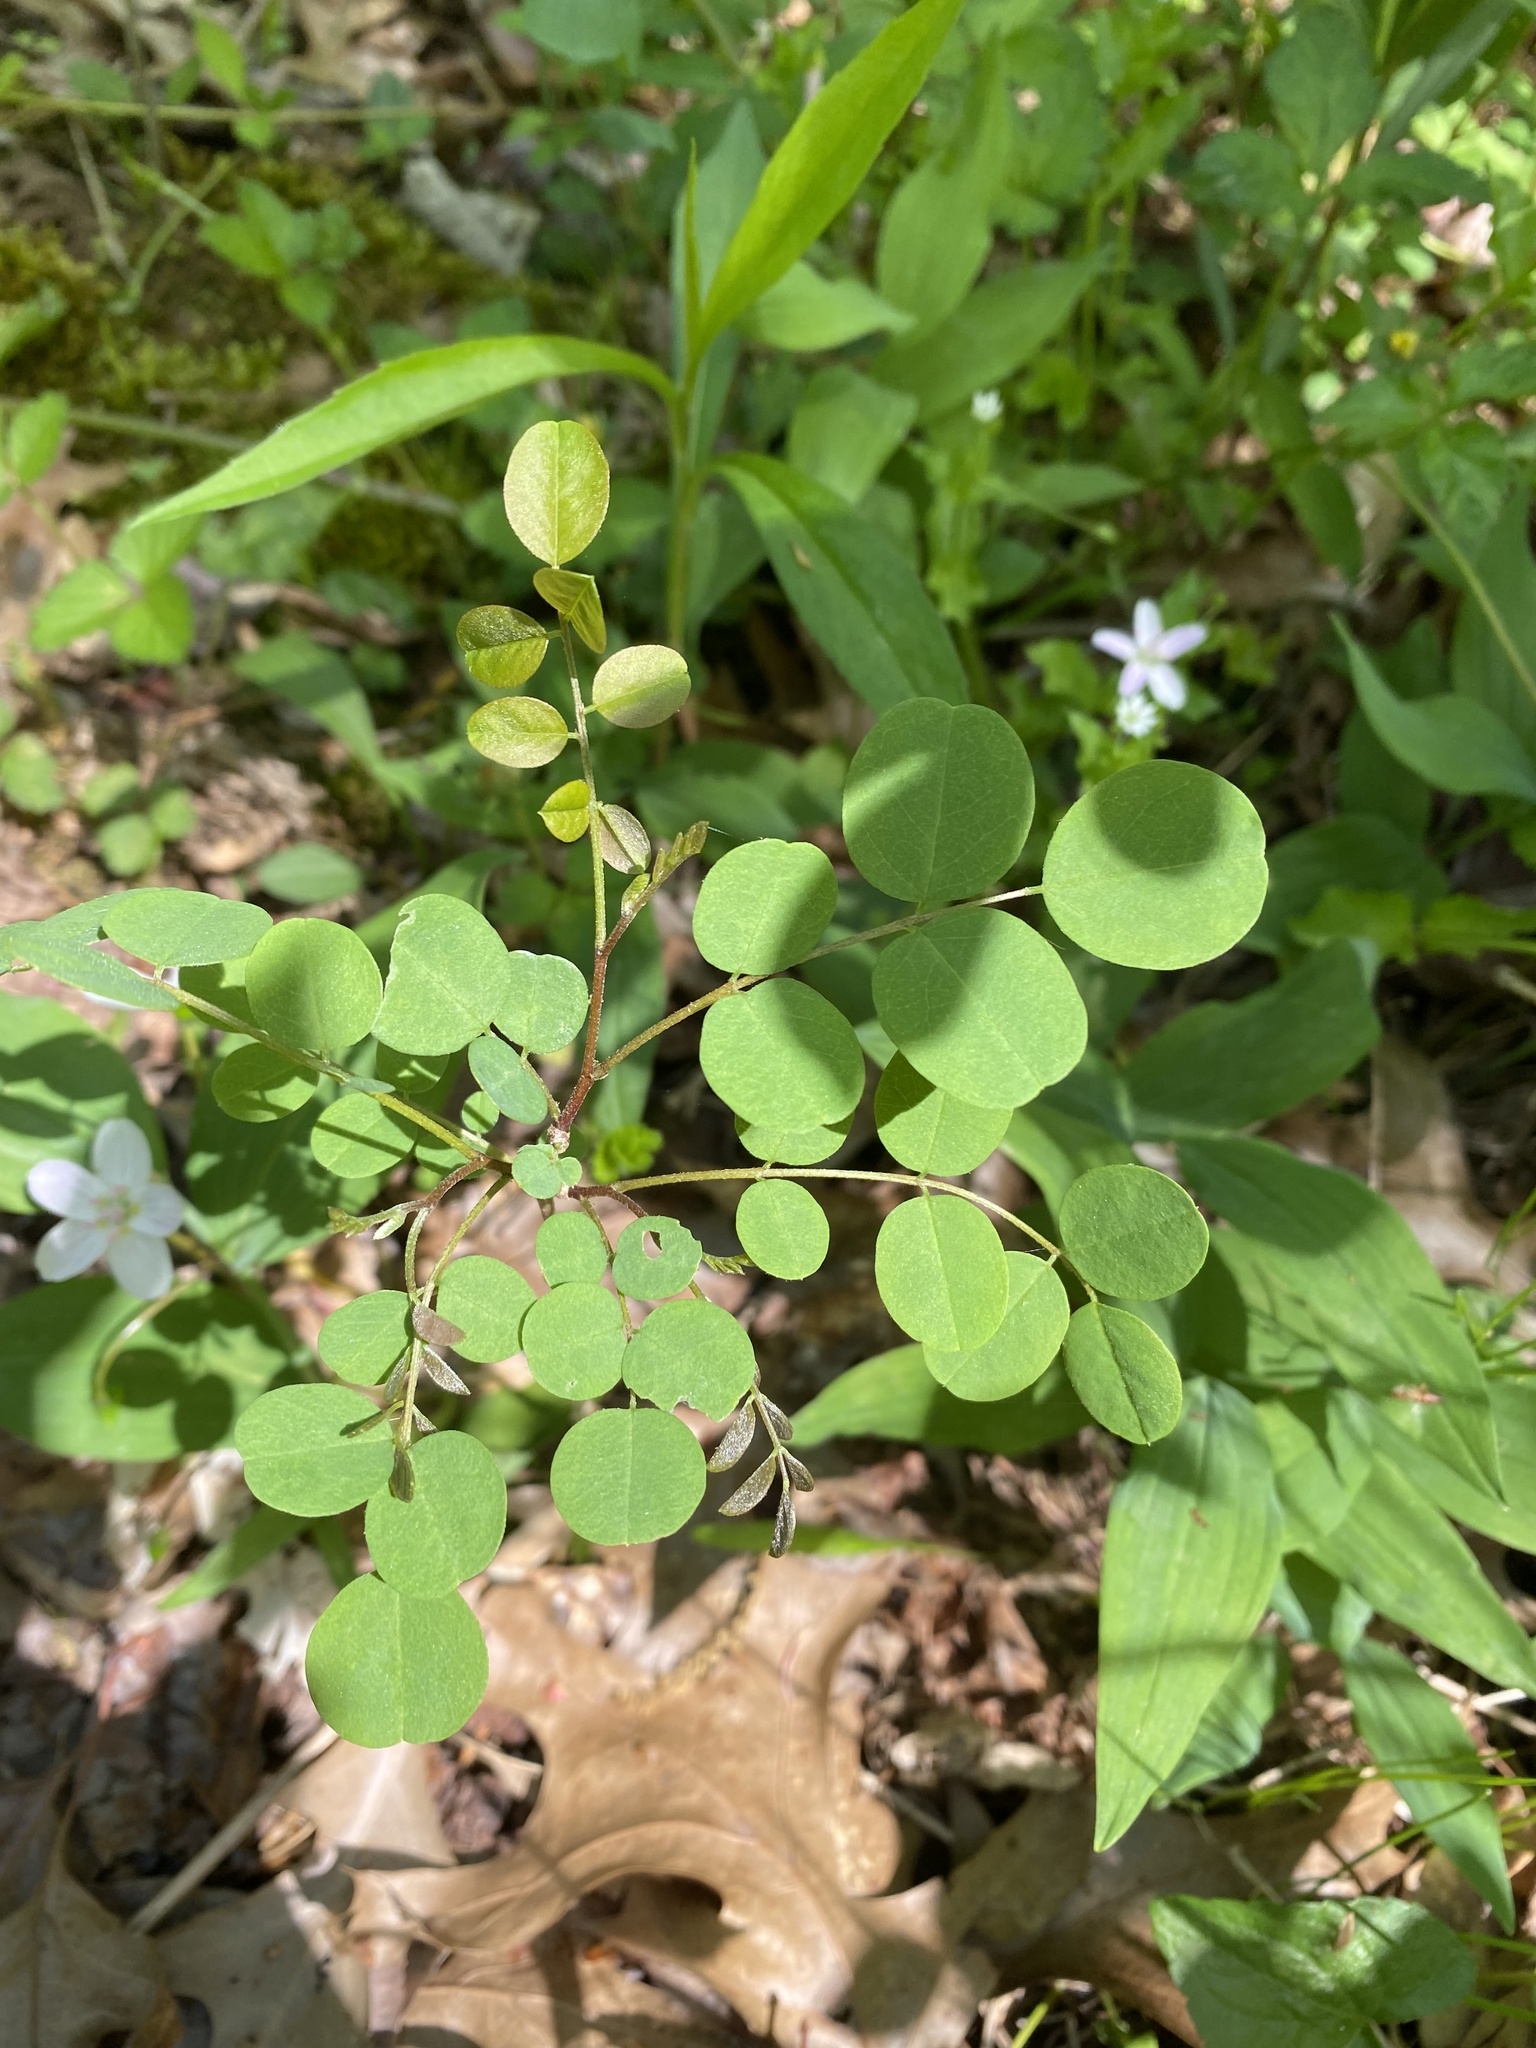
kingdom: Plantae
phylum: Tracheophyta
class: Magnoliopsida
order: Fabales
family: Fabaceae
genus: Robinia
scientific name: Robinia pseudoacacia
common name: Black locust
